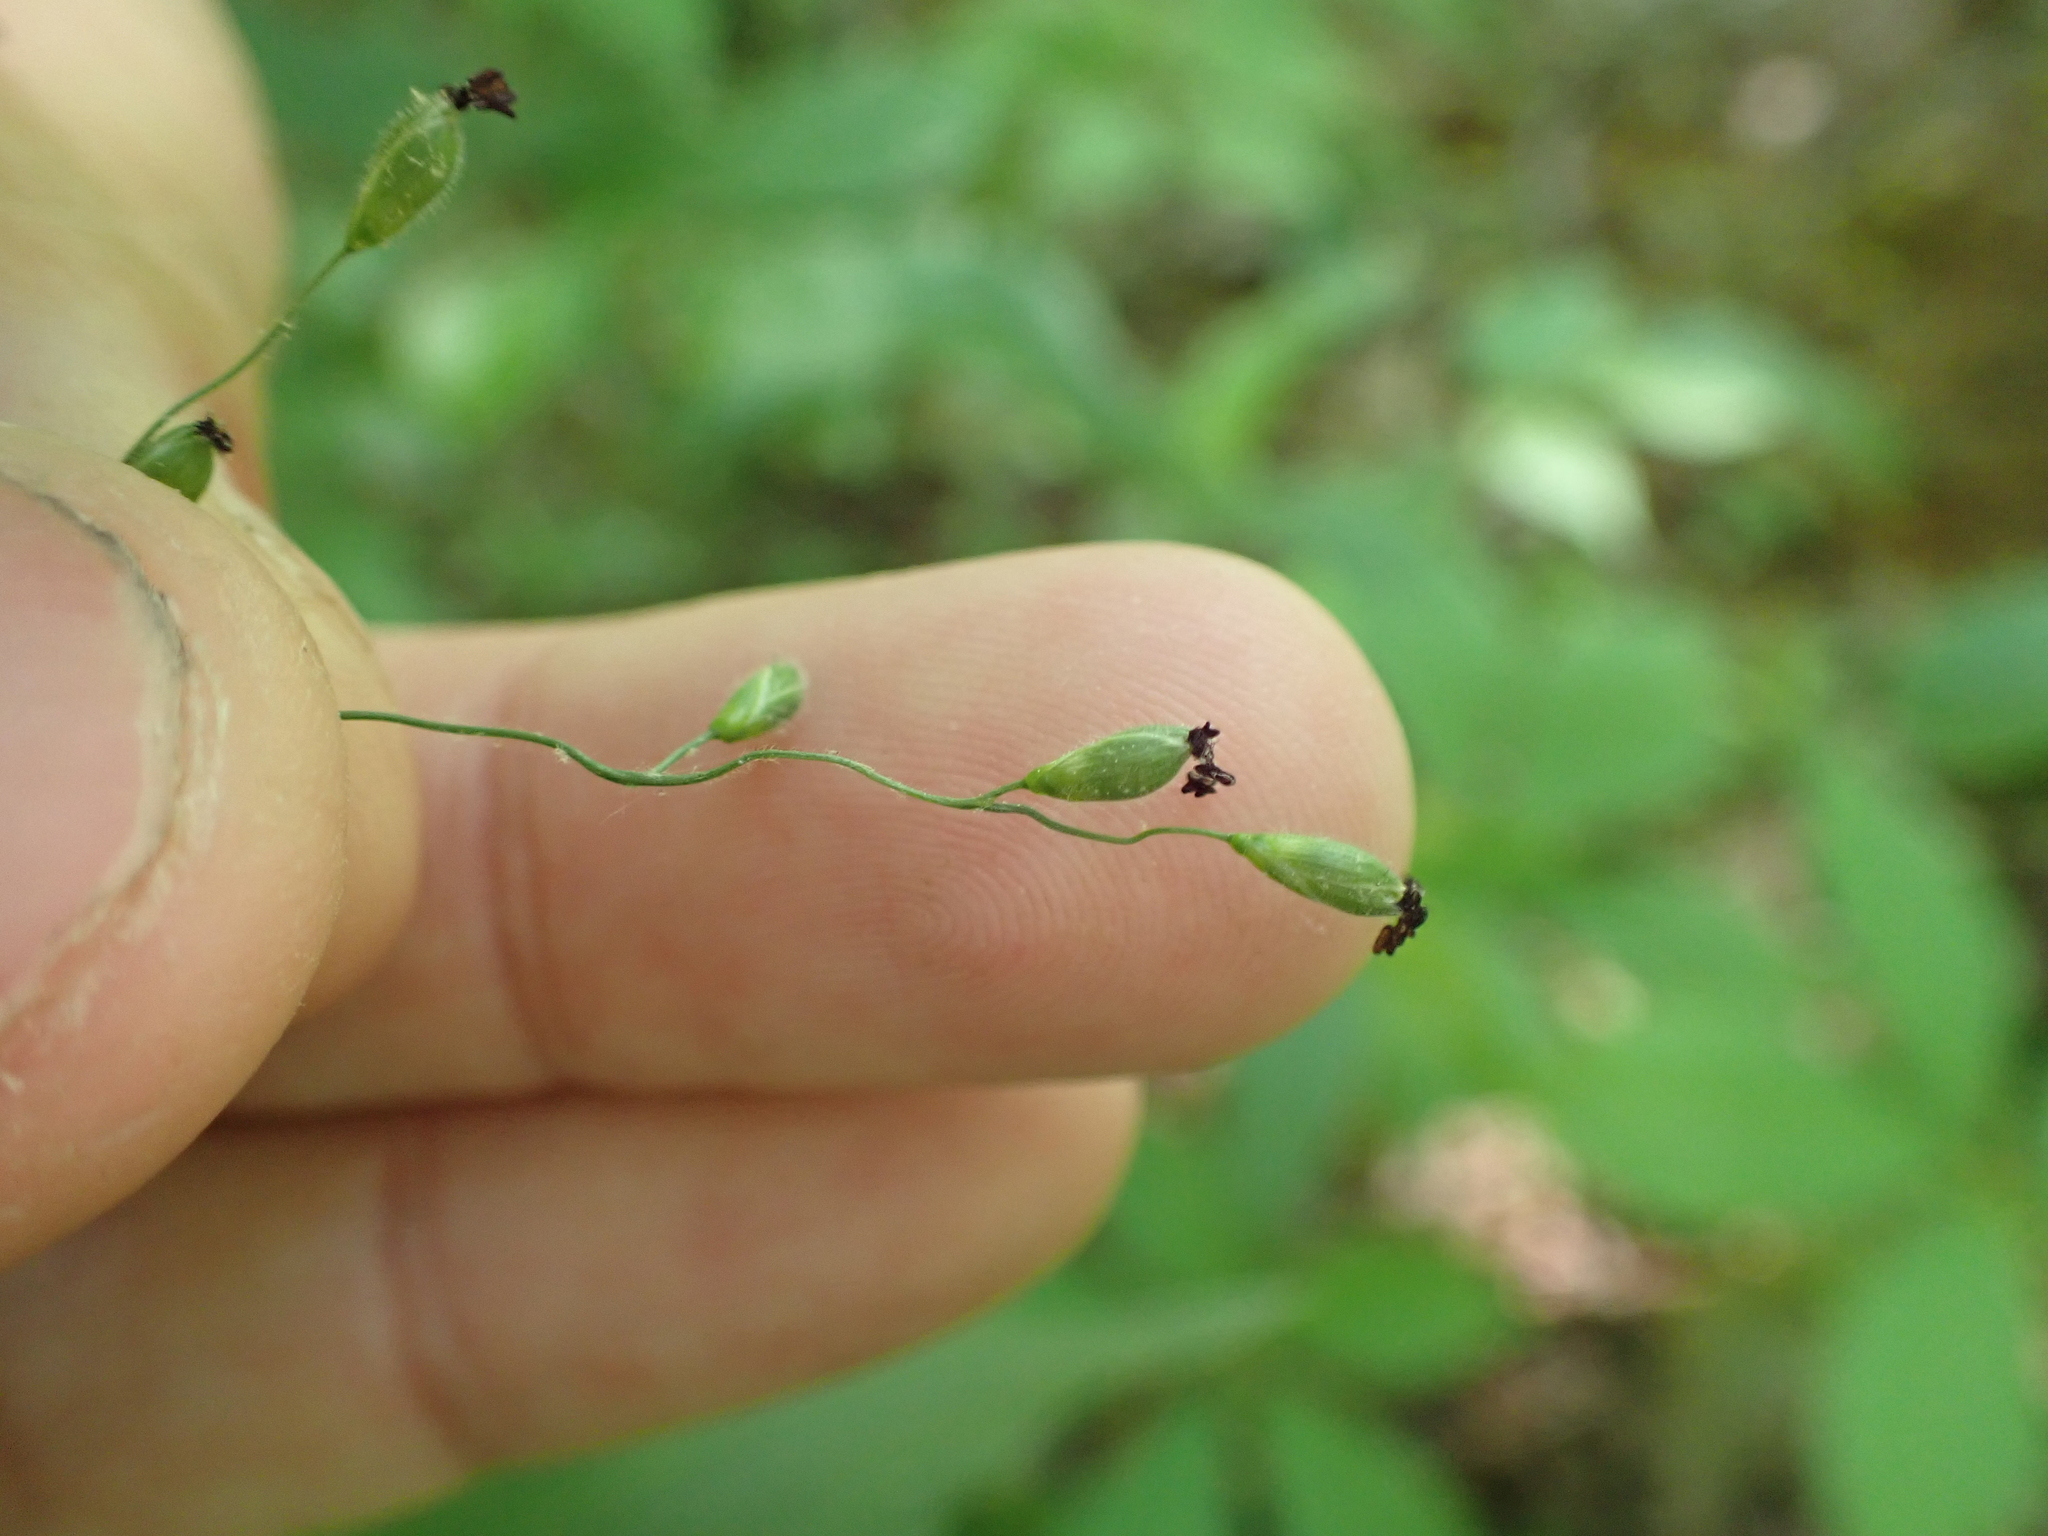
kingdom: Plantae
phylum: Tracheophyta
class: Liliopsida
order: Poales
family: Poaceae
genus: Dichanthelium
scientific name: Dichanthelium boscii
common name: Bosc's panic grass
